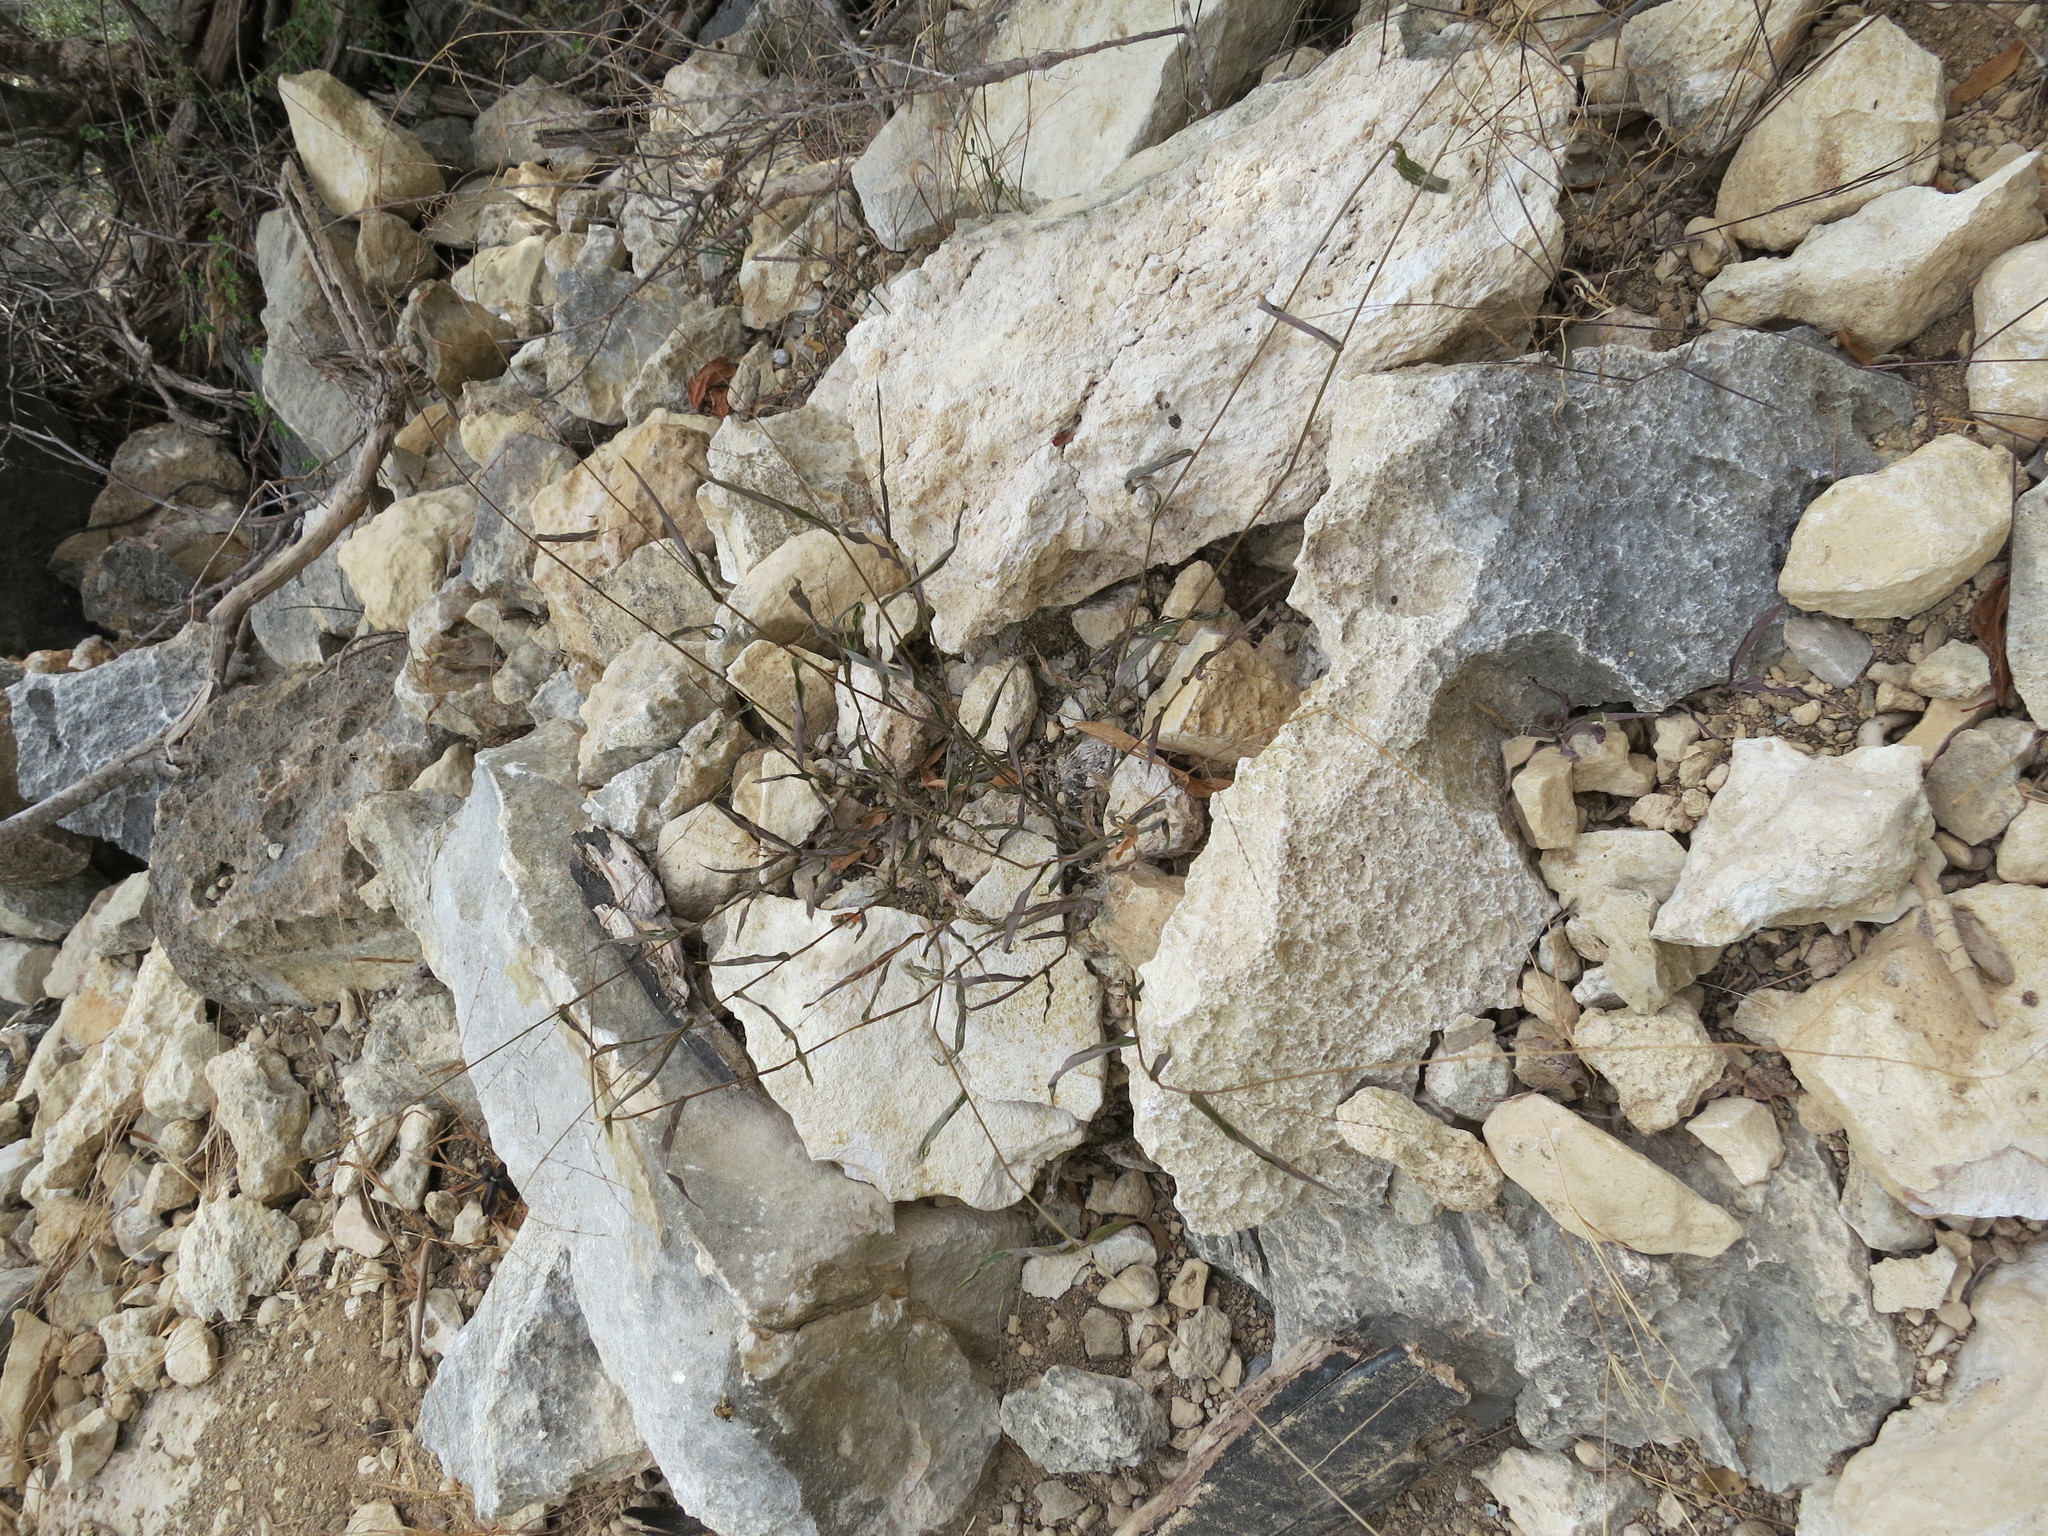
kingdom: Plantae
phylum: Tracheophyta
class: Liliopsida
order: Poales
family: Poaceae
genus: Acroceras
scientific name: Acroceras calcicola
